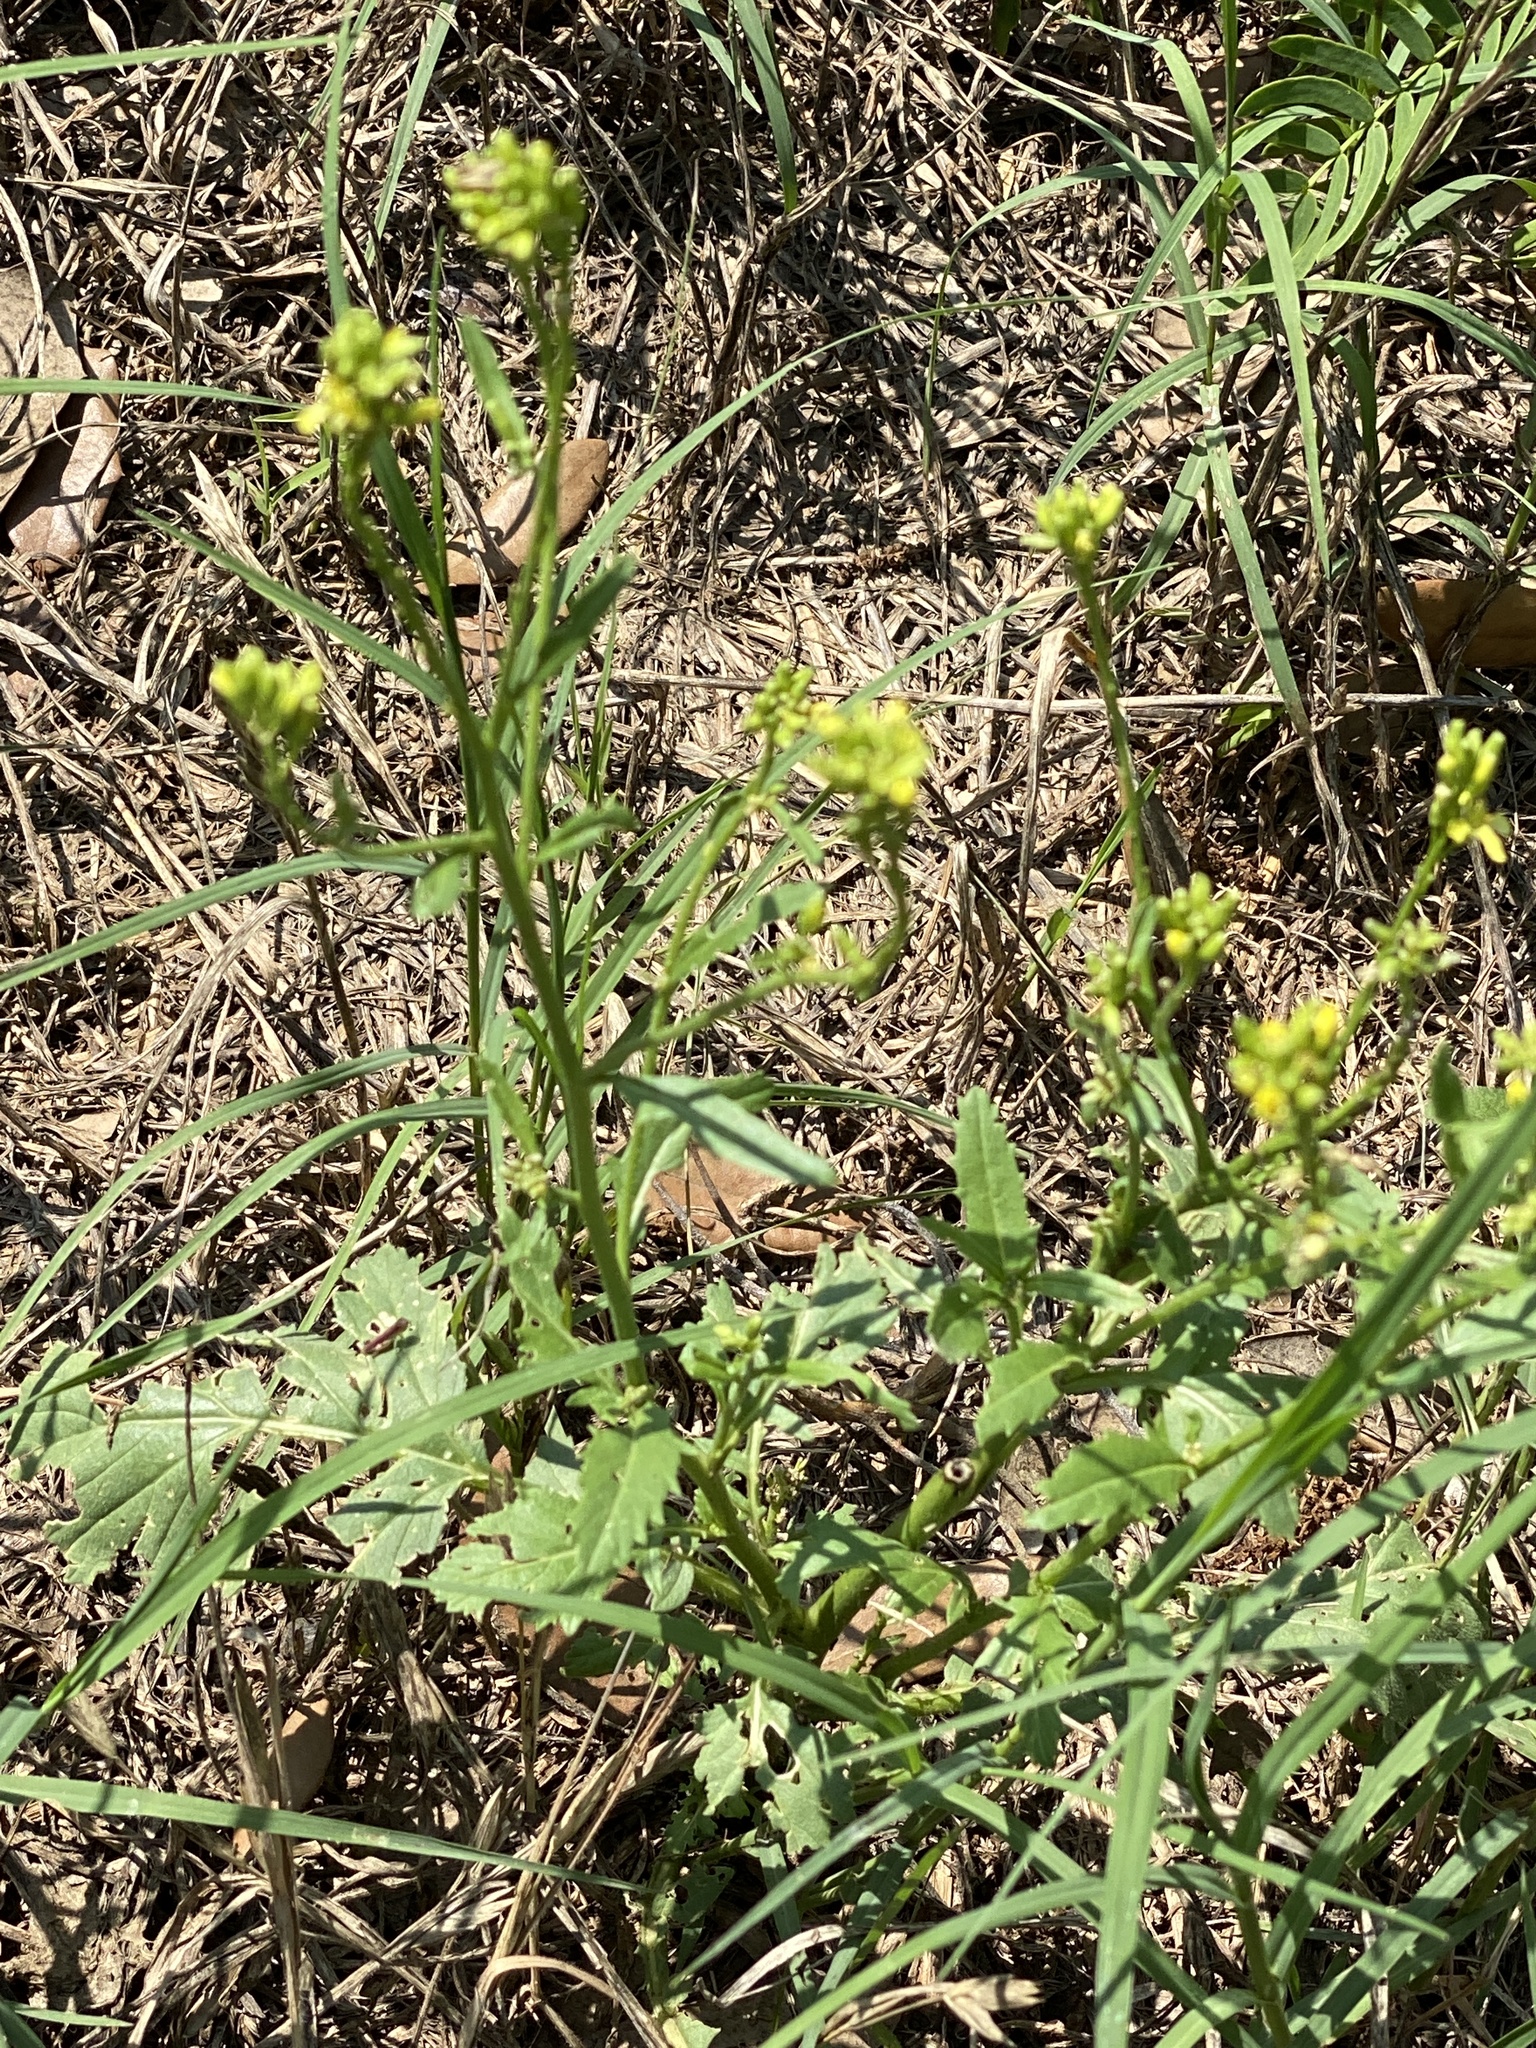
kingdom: Plantae
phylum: Tracheophyta
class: Magnoliopsida
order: Brassicales
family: Brassicaceae
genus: Rapistrum
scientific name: Rapistrum rugosum
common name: Annual bastardcabbage
